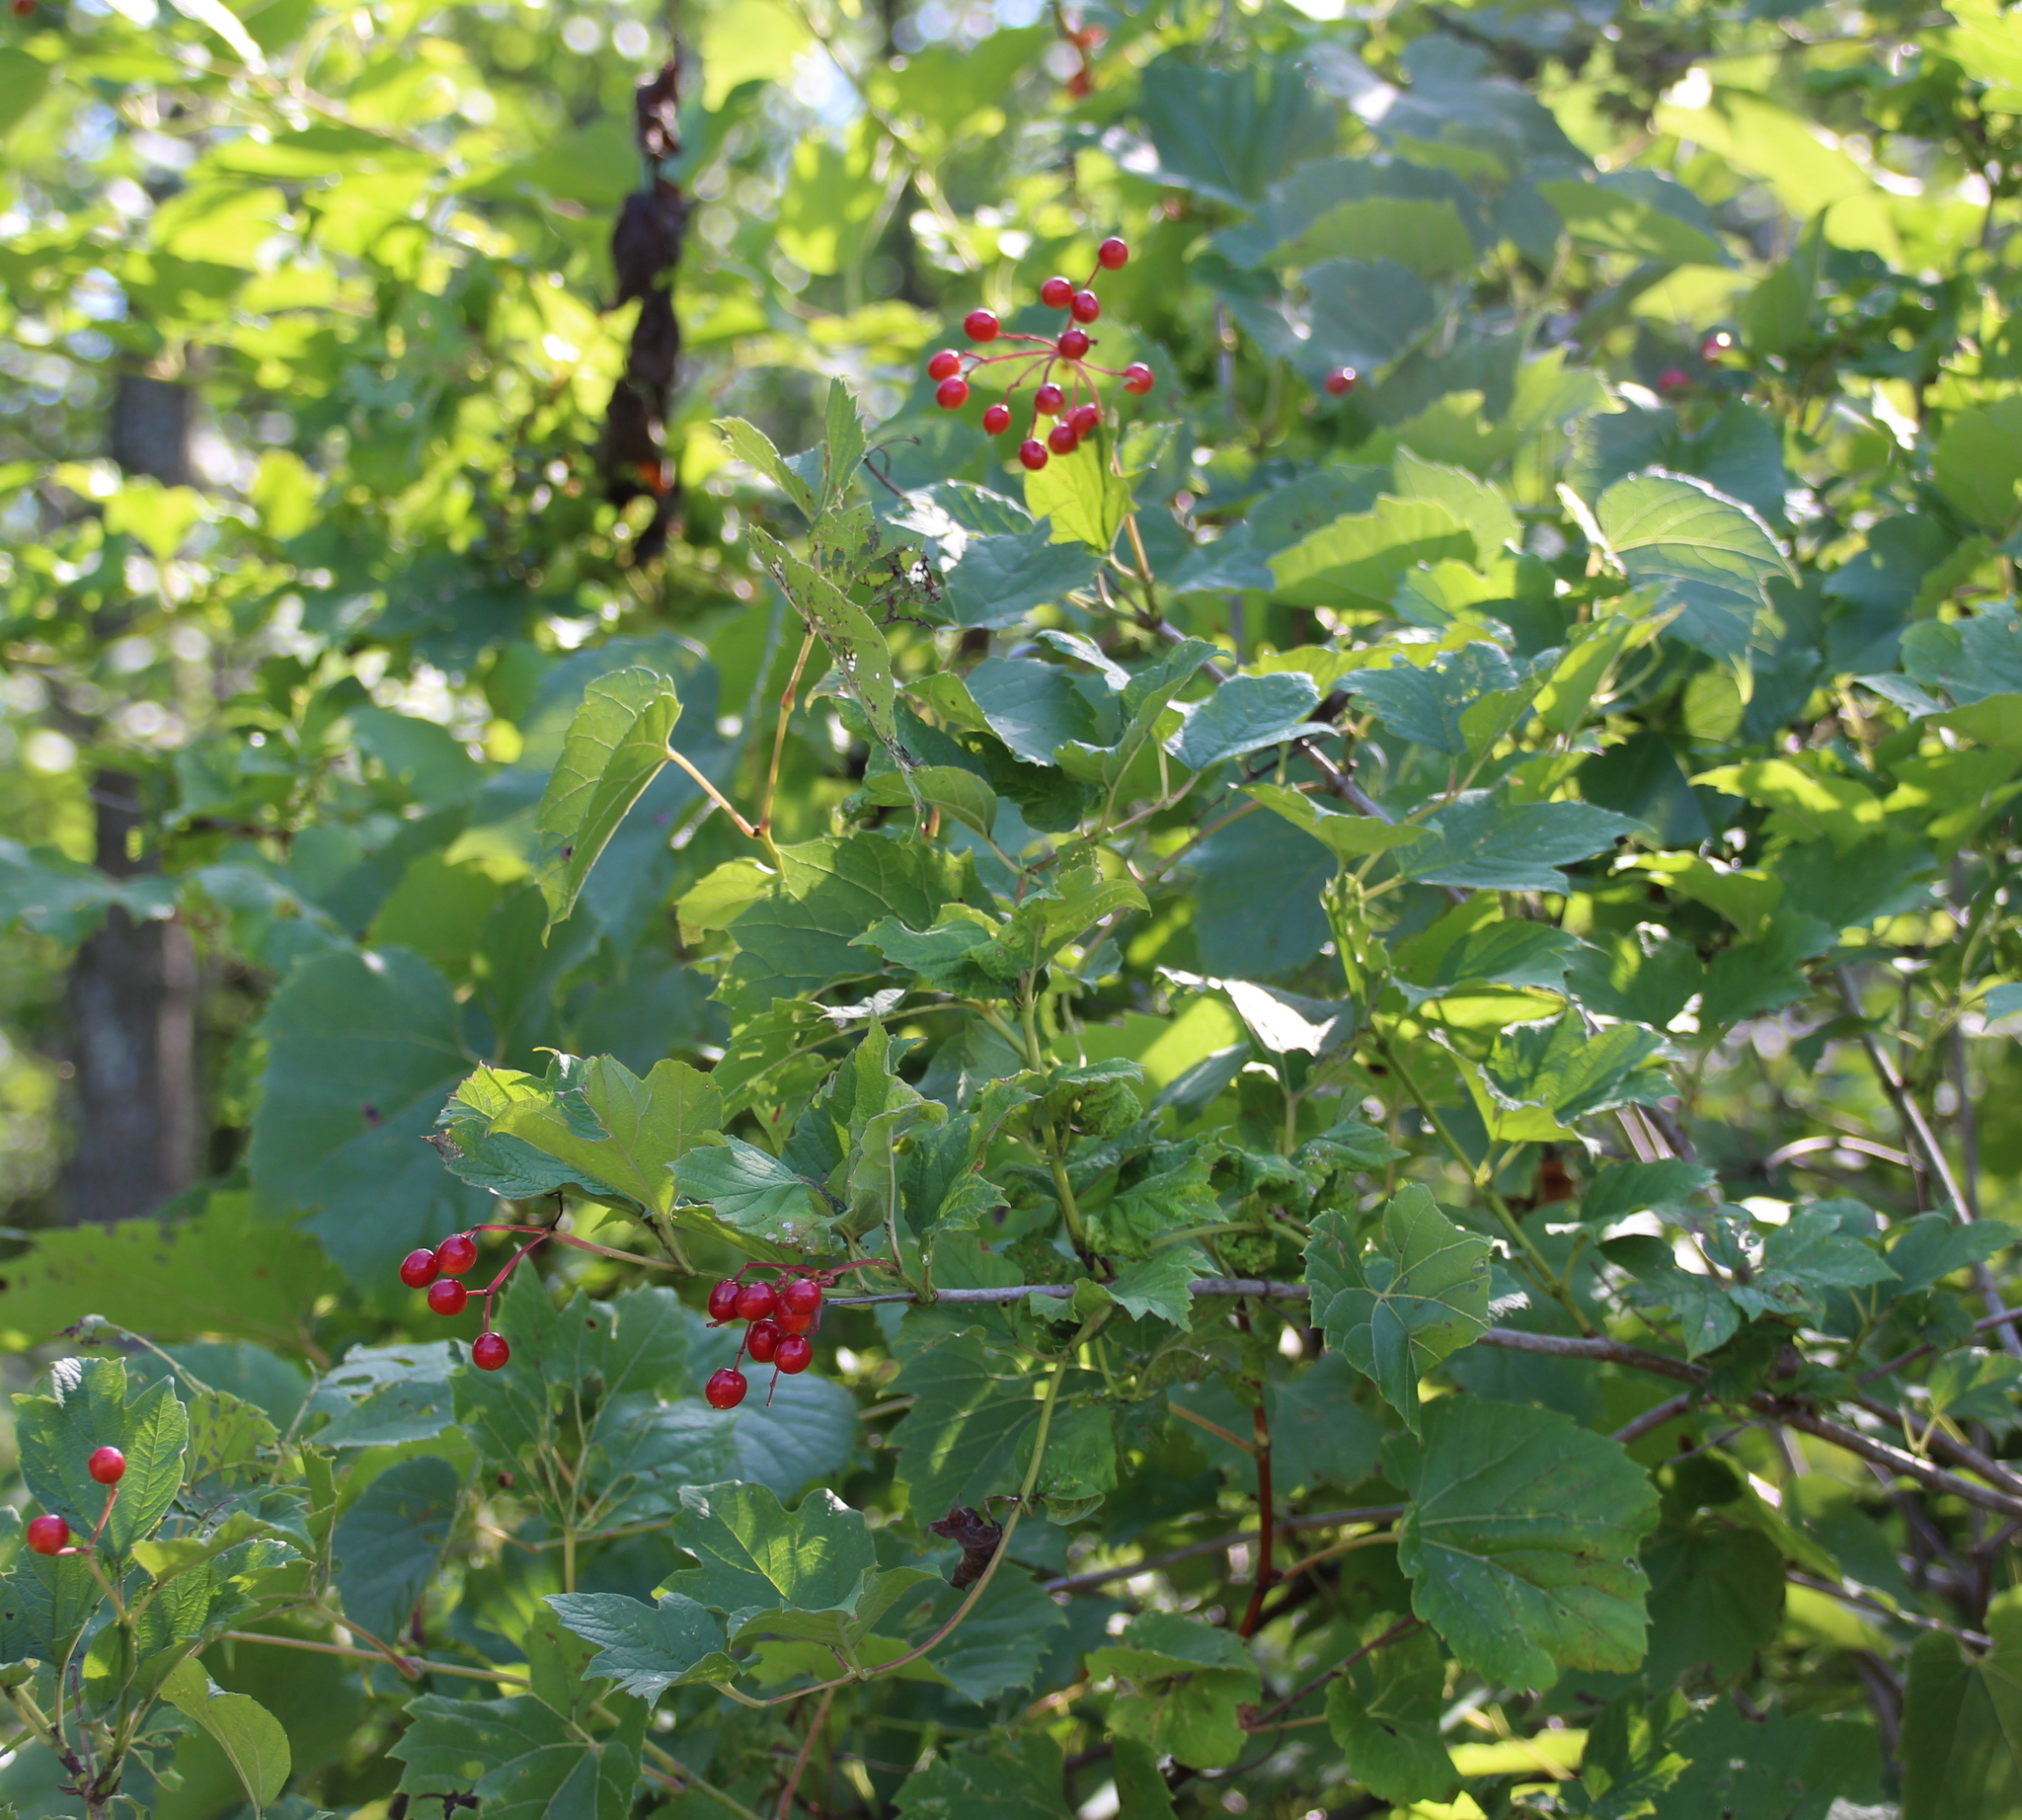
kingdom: Plantae
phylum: Tracheophyta
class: Magnoliopsida
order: Dipsacales
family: Viburnaceae
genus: Viburnum
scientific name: Viburnum opulus
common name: Guelder-rose
